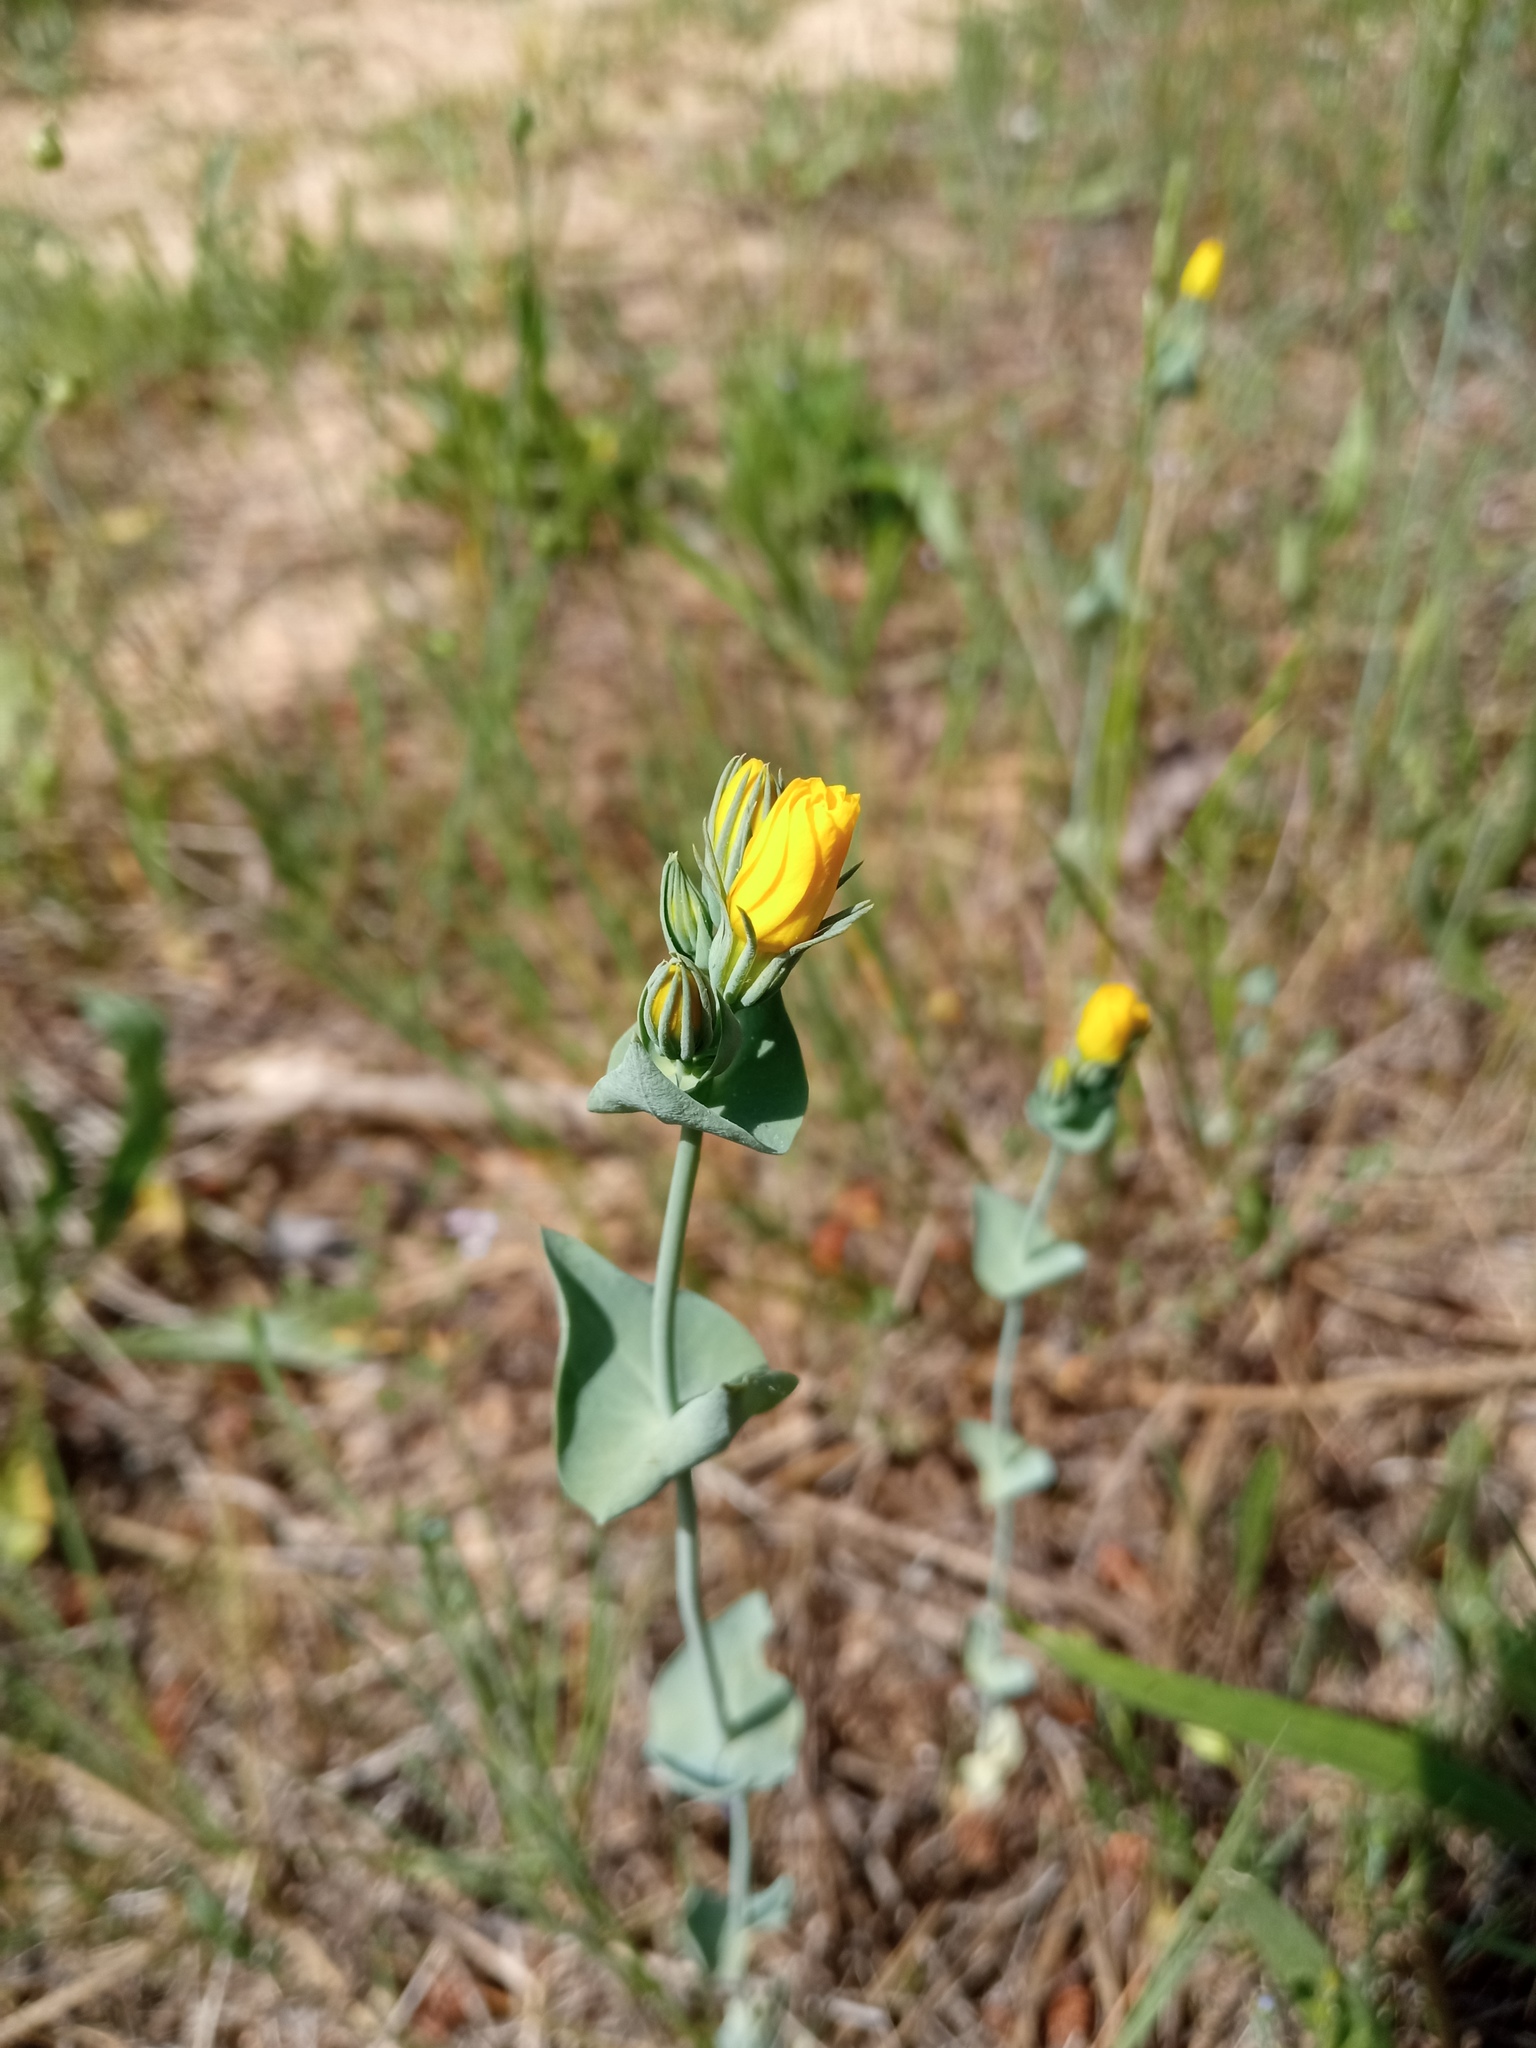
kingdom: Plantae
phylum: Tracheophyta
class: Magnoliopsida
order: Gentianales
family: Gentianaceae
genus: Blackstonia
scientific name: Blackstonia perfoliata
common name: Yellow-wort
